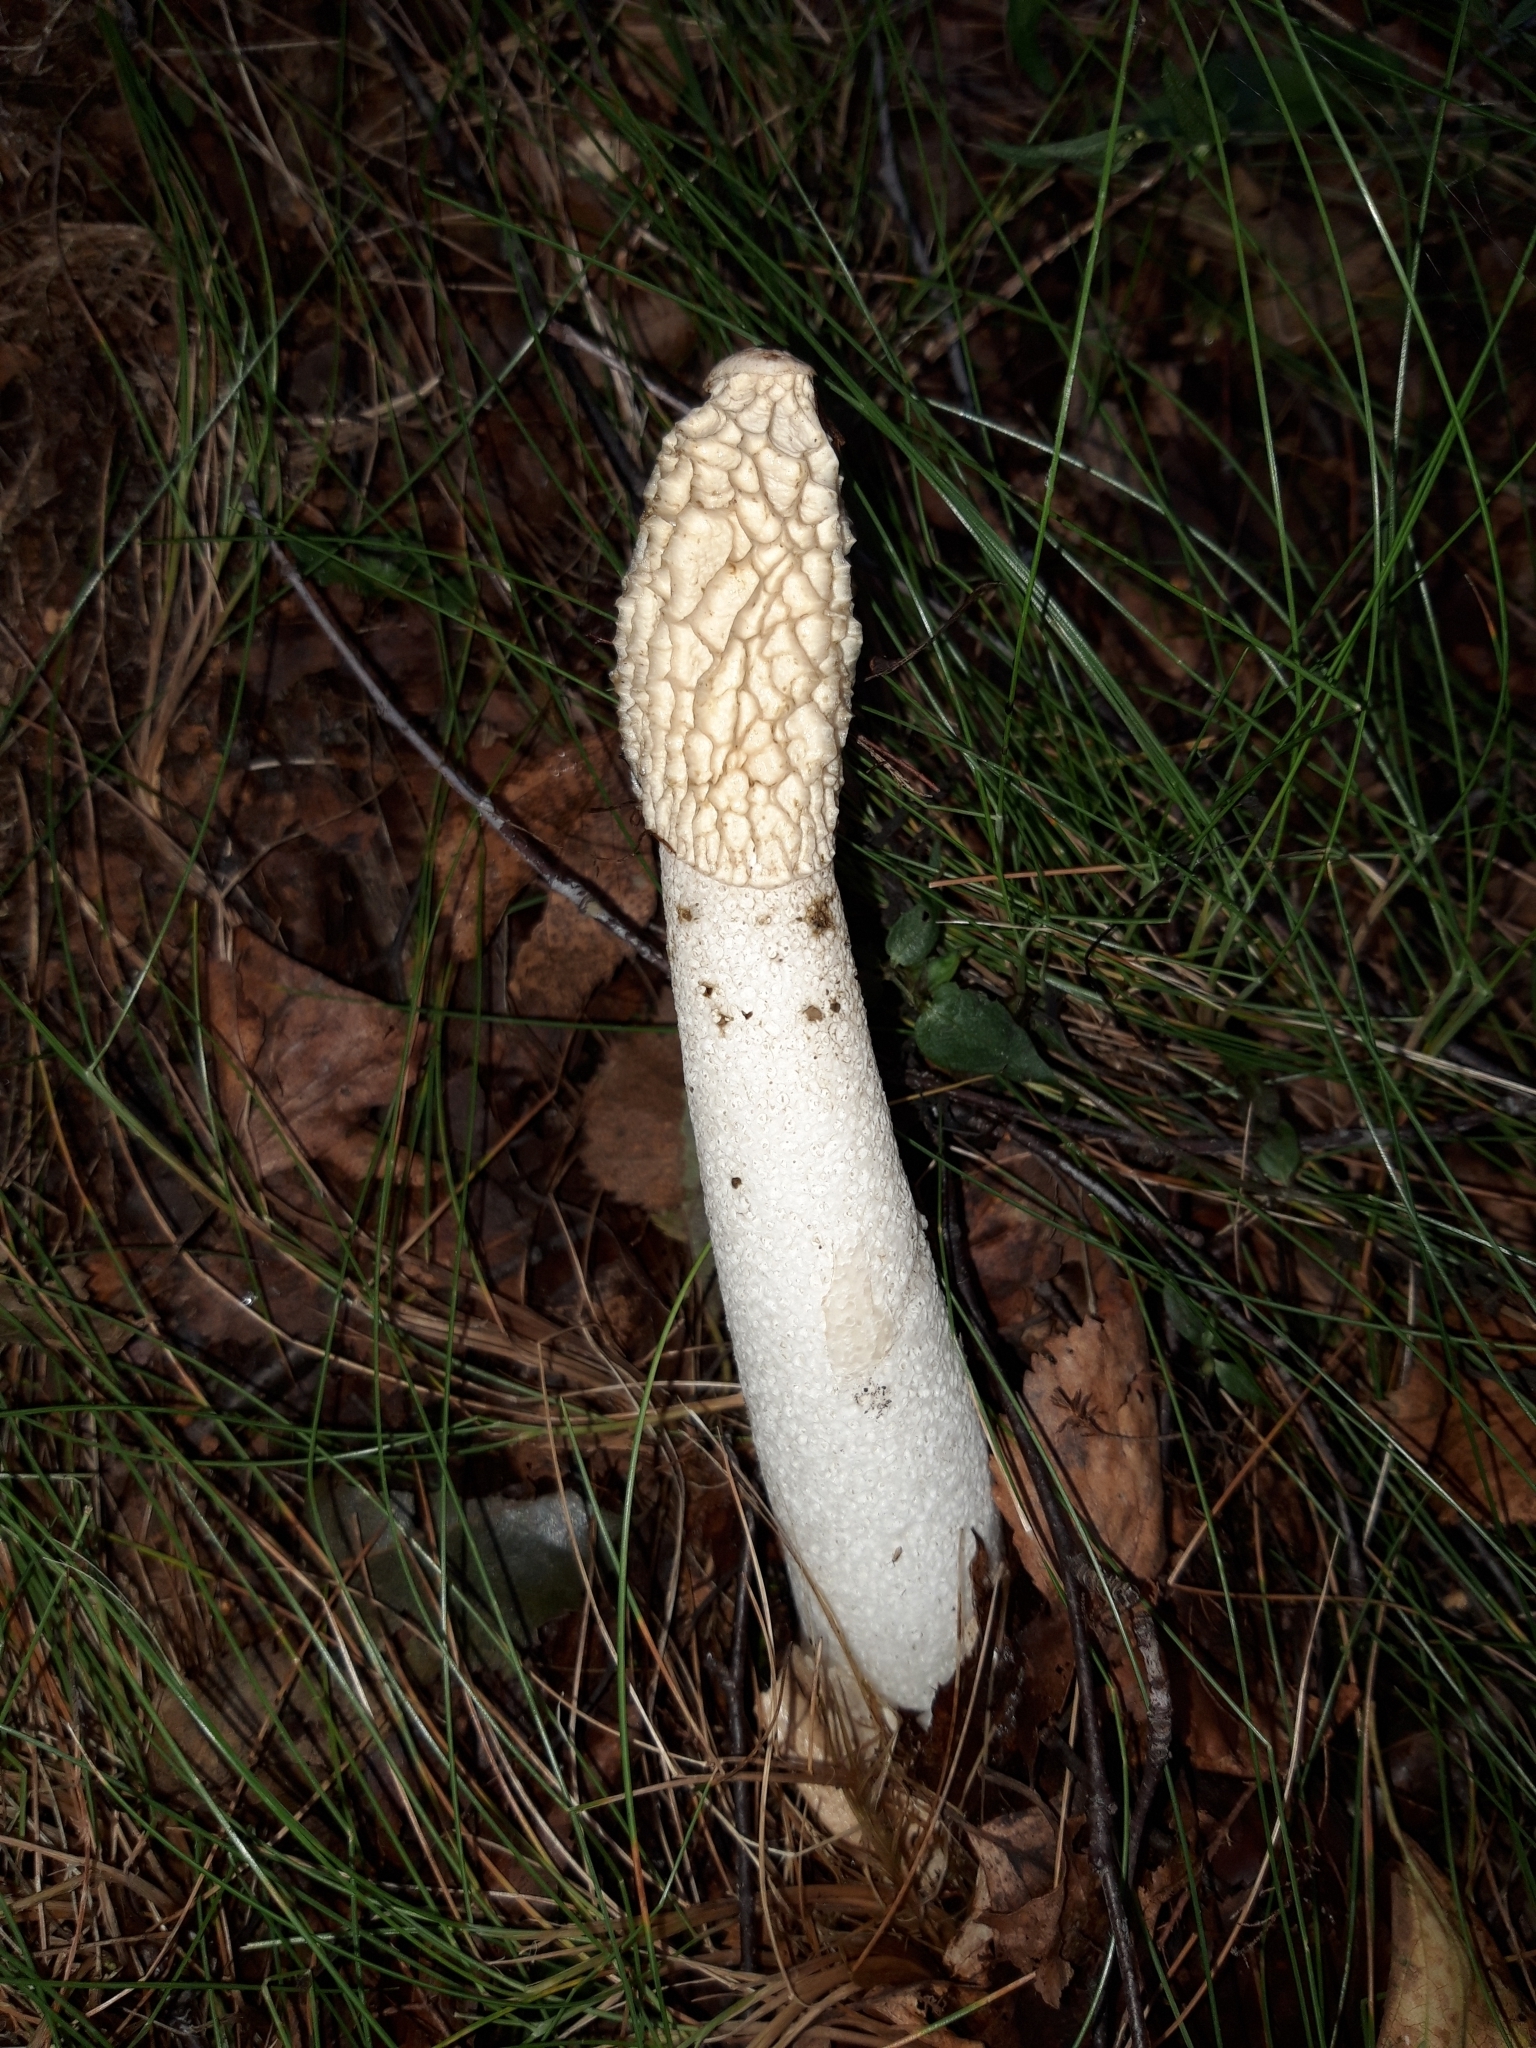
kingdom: Fungi
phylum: Basidiomycota
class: Agaricomycetes
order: Phallales
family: Phallaceae
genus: Phallus
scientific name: Phallus impudicus
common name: Common stinkhorn
